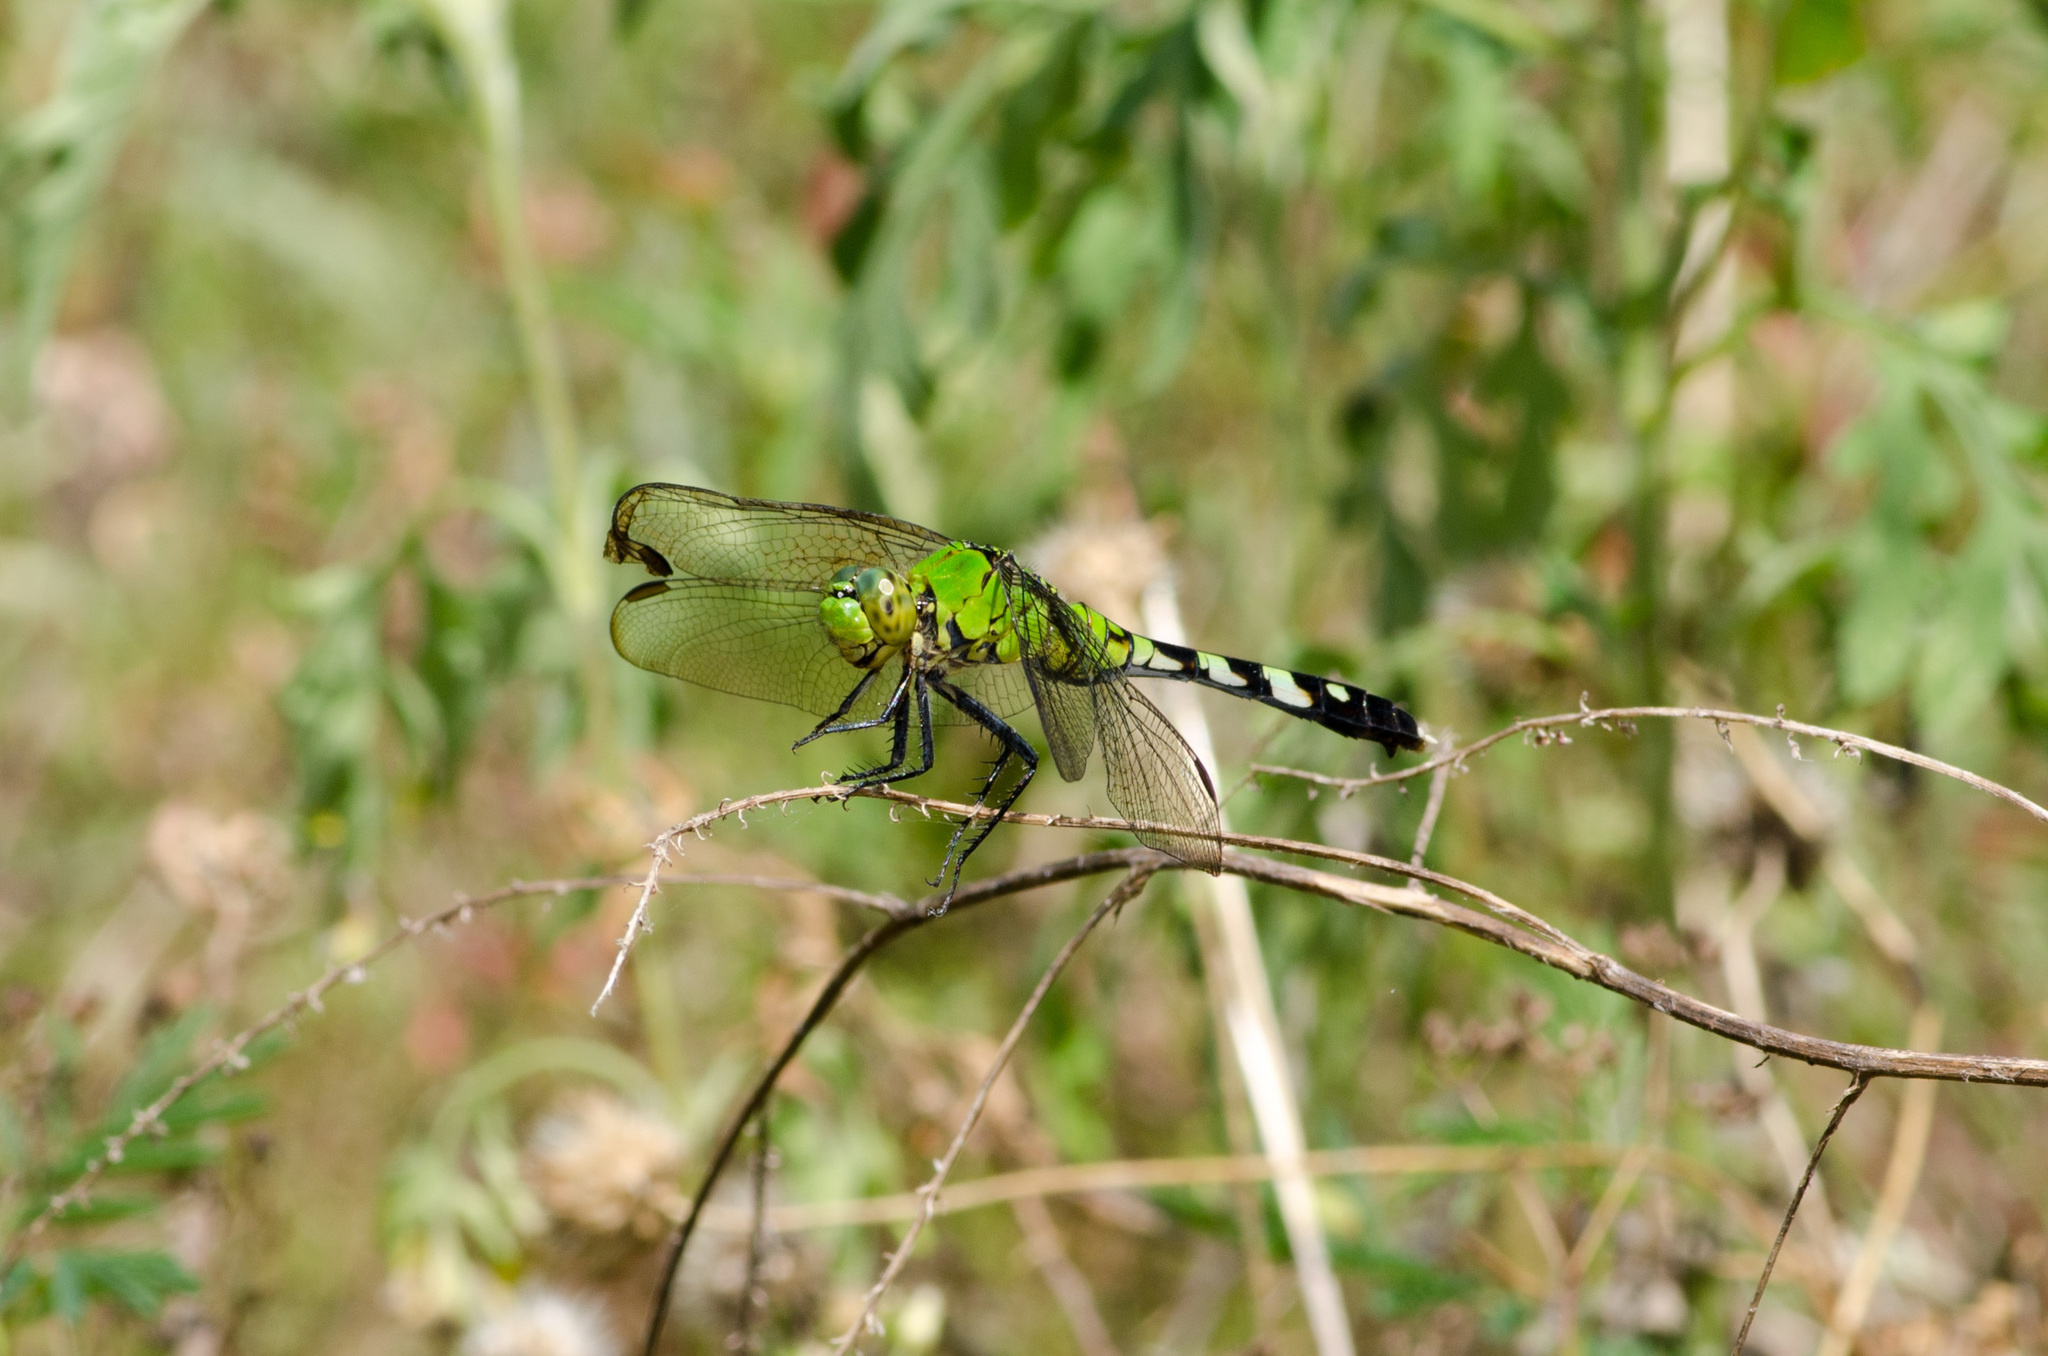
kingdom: Animalia
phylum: Arthropoda
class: Insecta
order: Odonata
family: Libellulidae
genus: Erythemis
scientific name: Erythemis simplicicollis
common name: Eastern pondhawk
